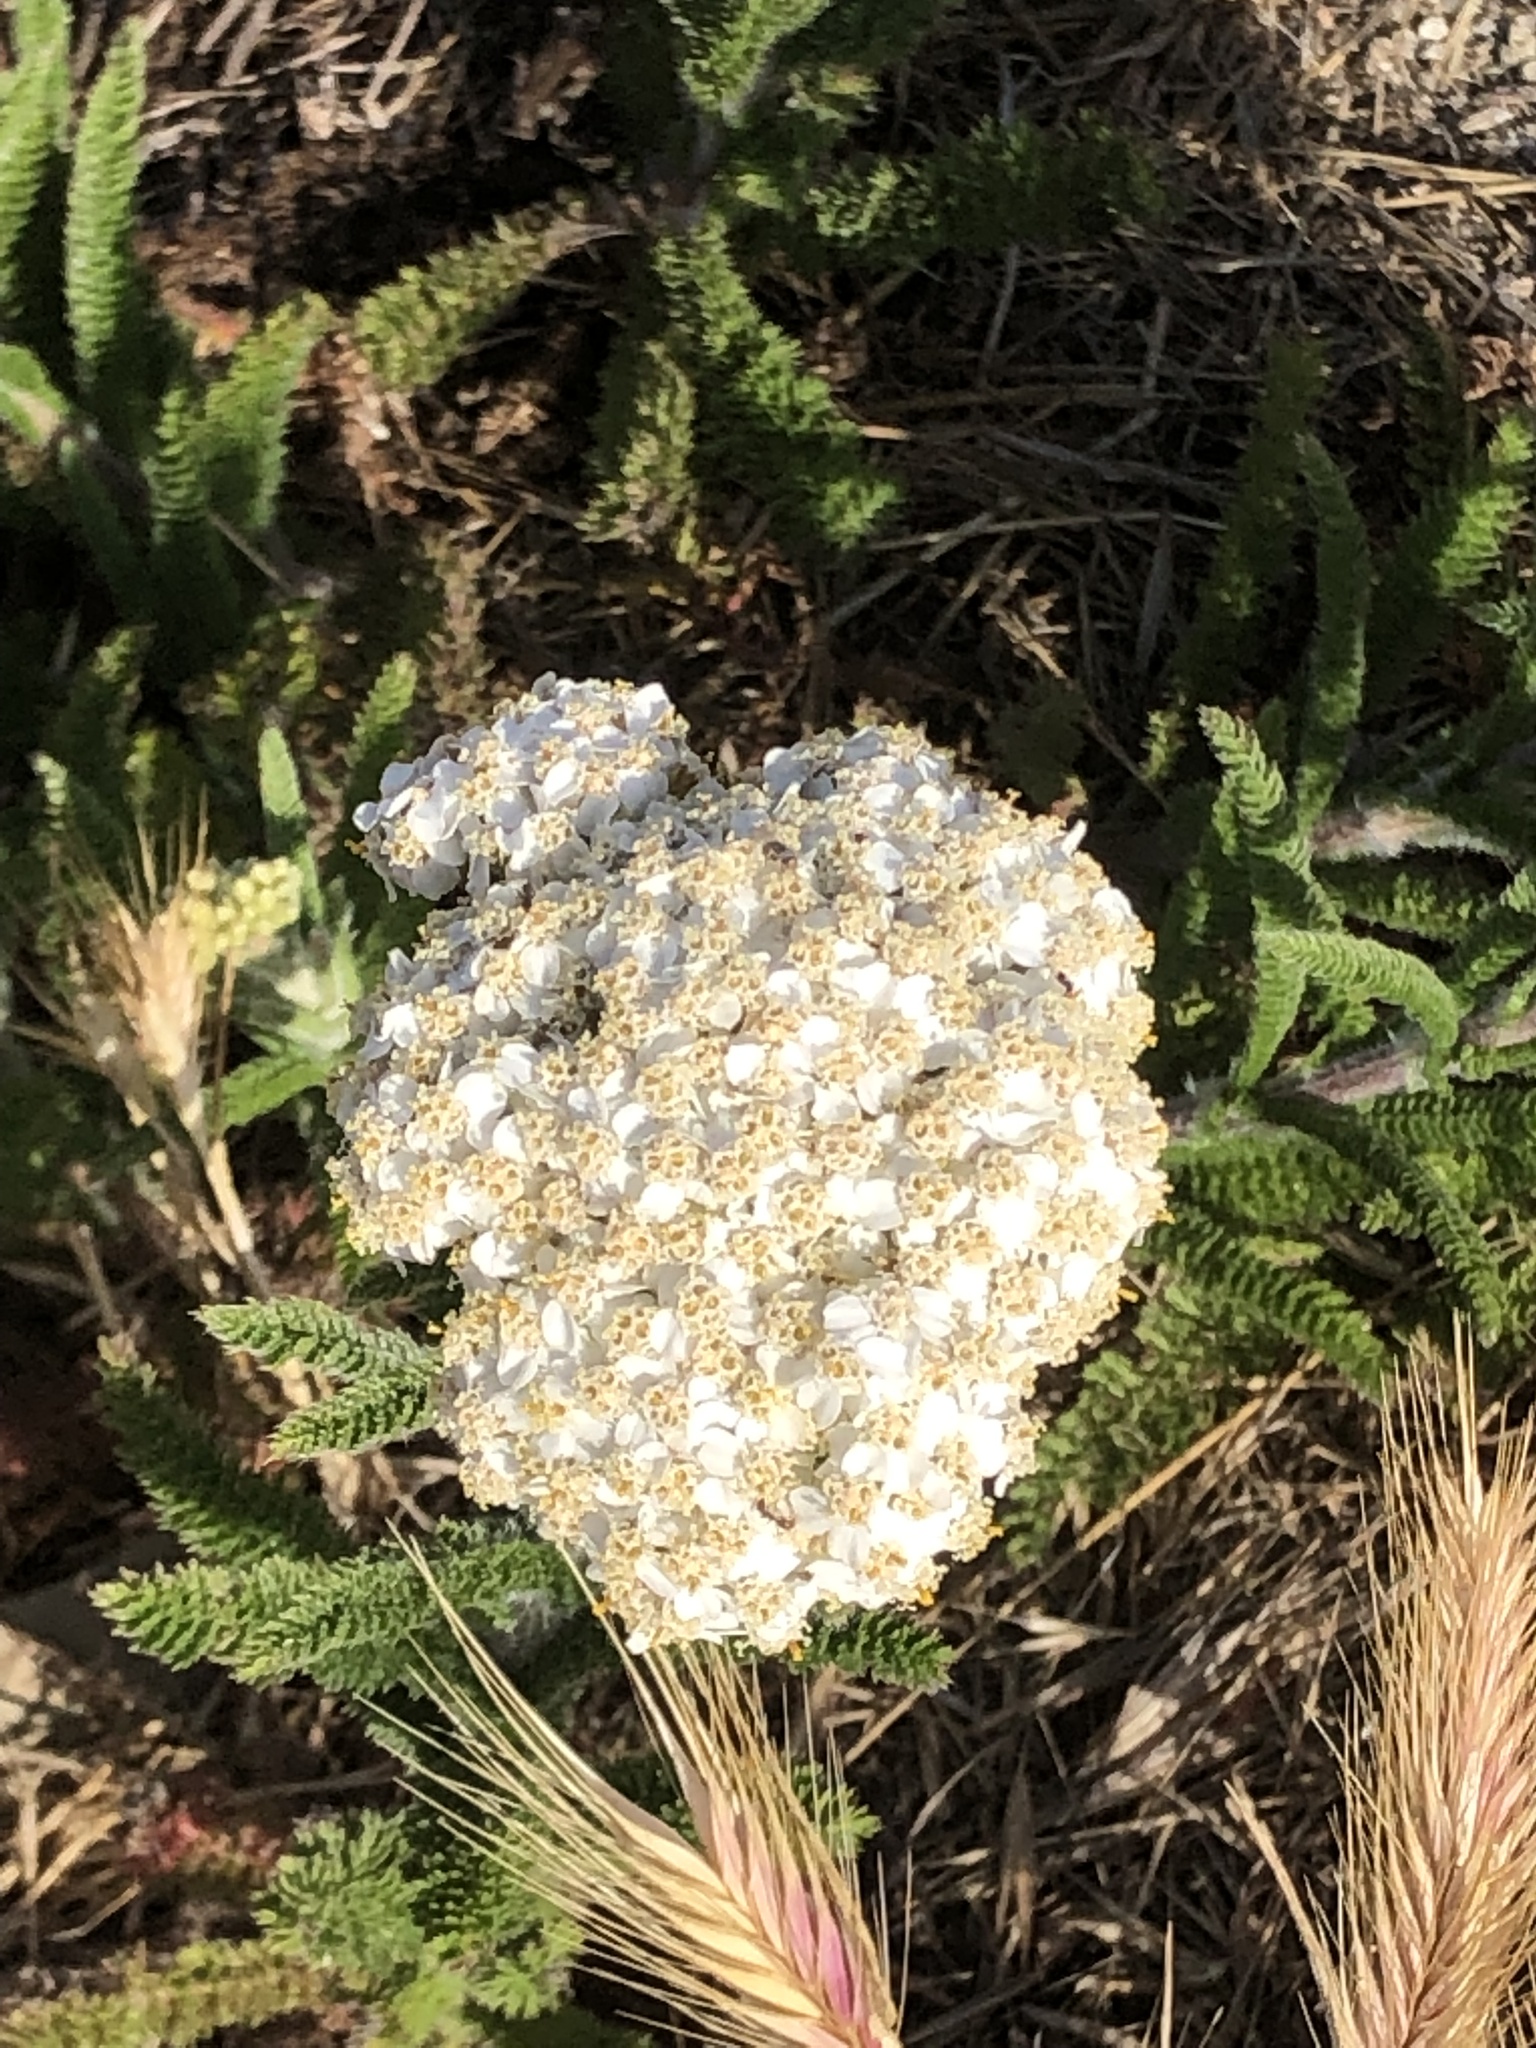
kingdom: Plantae
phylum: Tracheophyta
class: Magnoliopsida
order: Asterales
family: Asteraceae
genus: Achillea
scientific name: Achillea millefolium
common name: Yarrow
